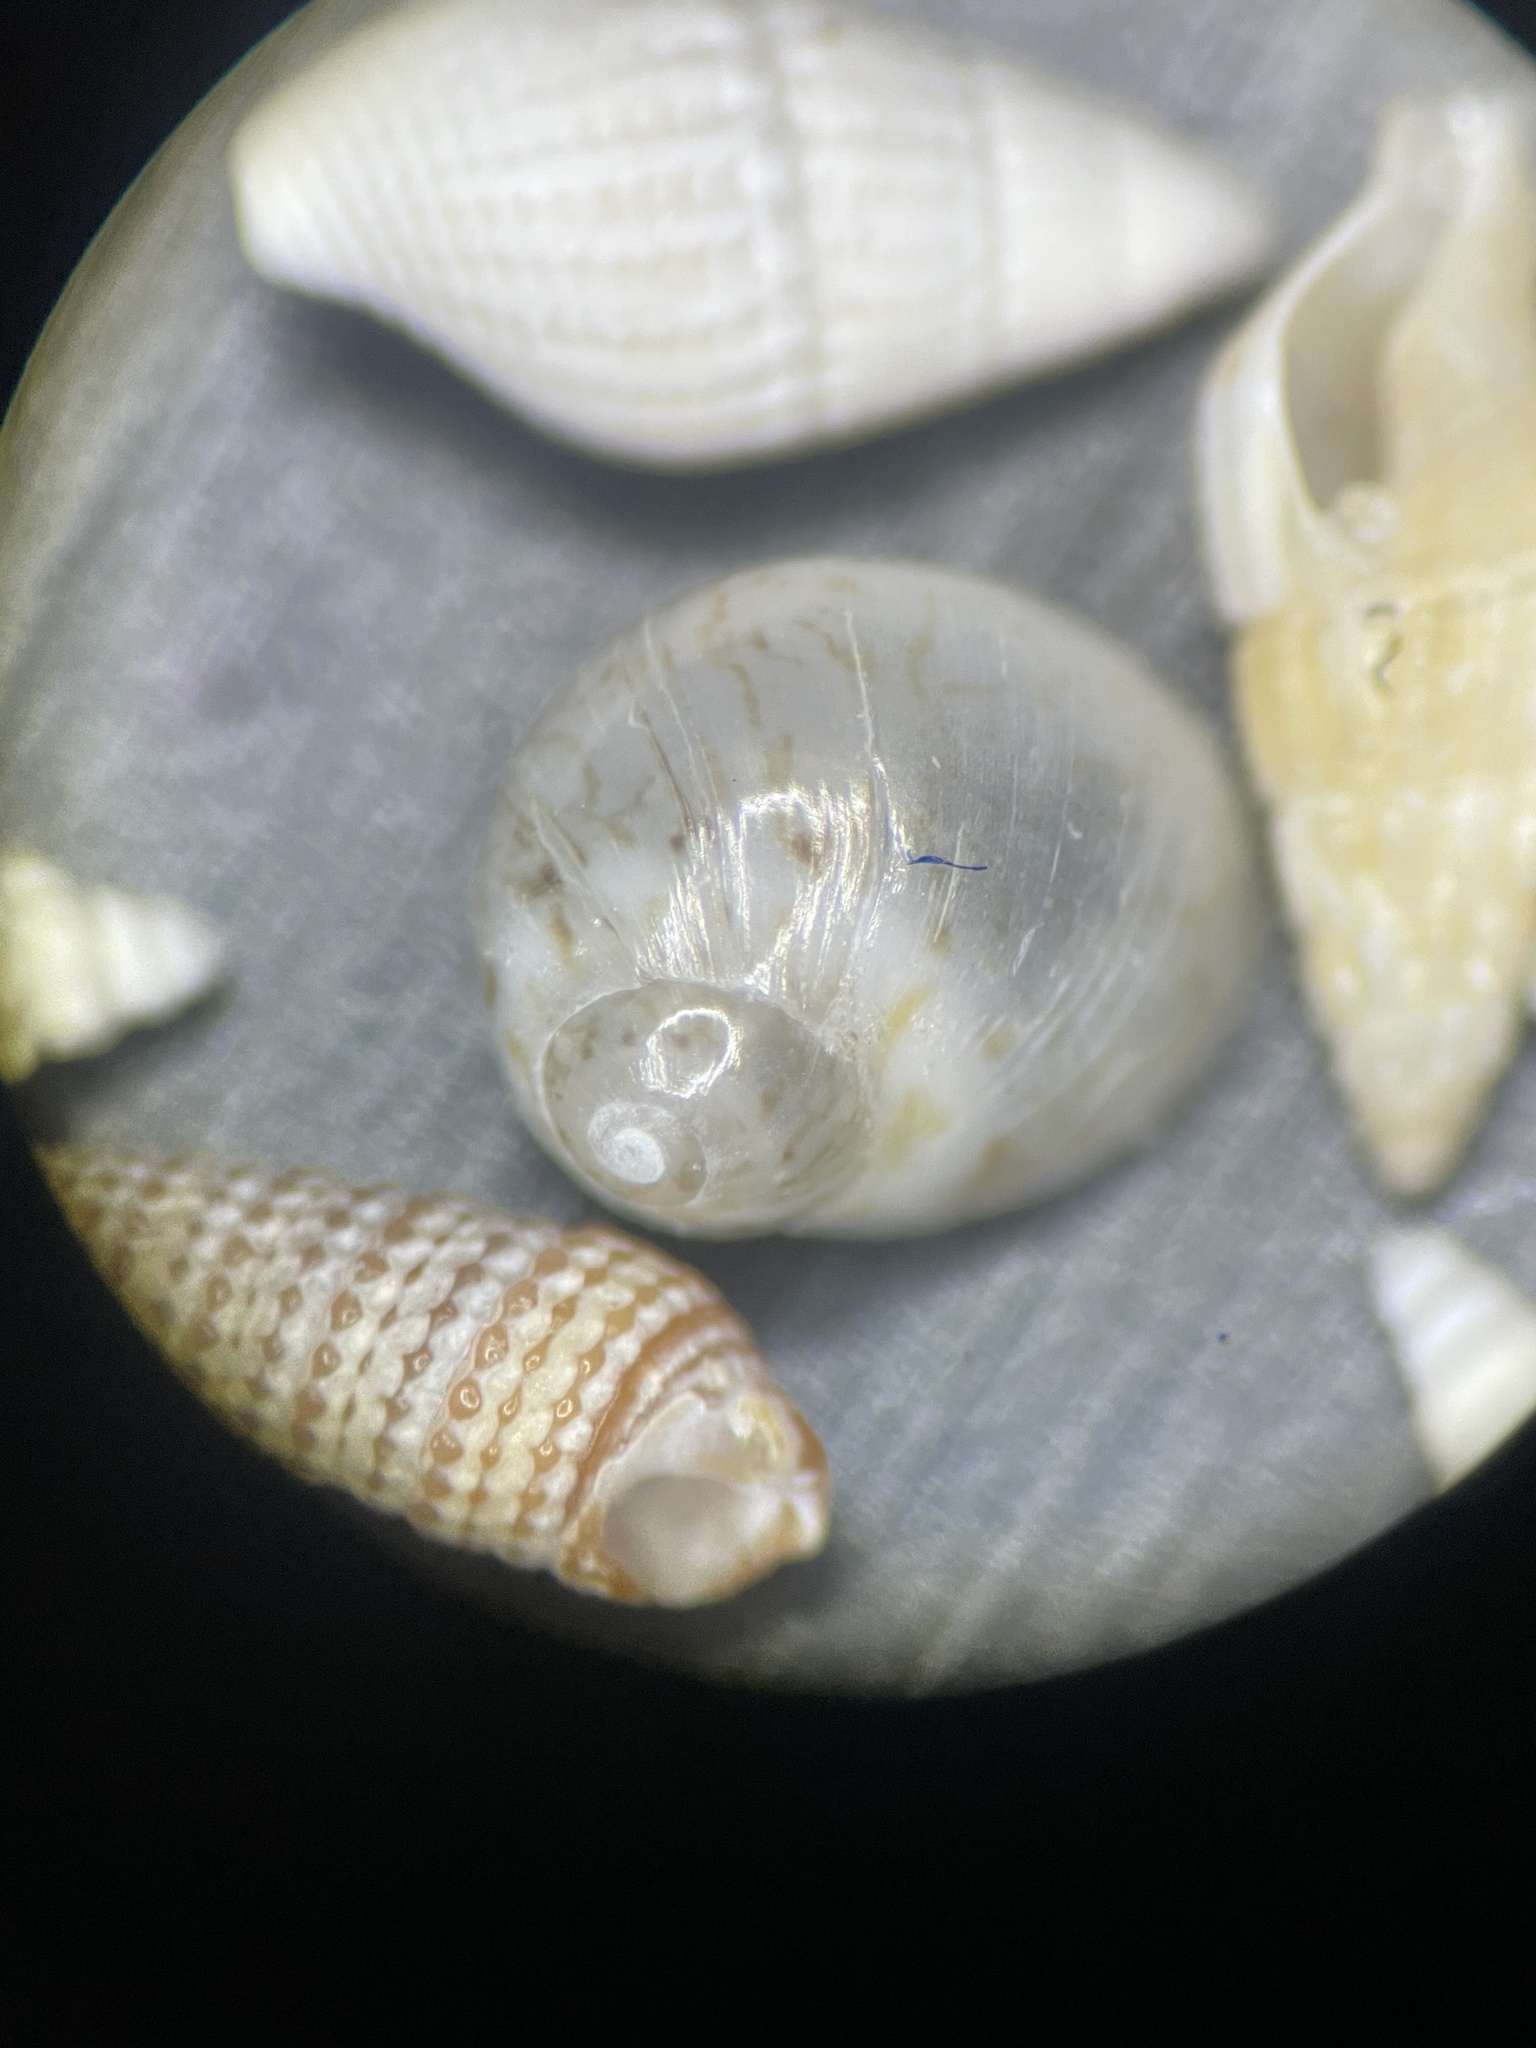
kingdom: Animalia
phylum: Mollusca
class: Gastropoda
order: Littorinimorpha
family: Naticidae
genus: Naticarius
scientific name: Naticarius canrena
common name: Colorful moonsnail
